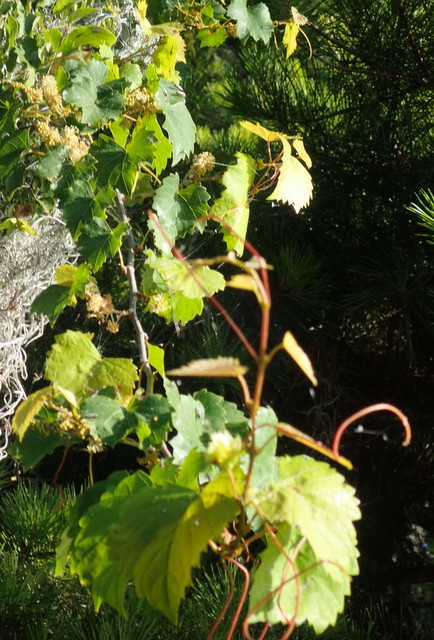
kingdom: Plantae
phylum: Tracheophyta
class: Magnoliopsida
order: Vitales
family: Vitaceae
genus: Vitis
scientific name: Vitis rotundifolia
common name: Muscadine grape
